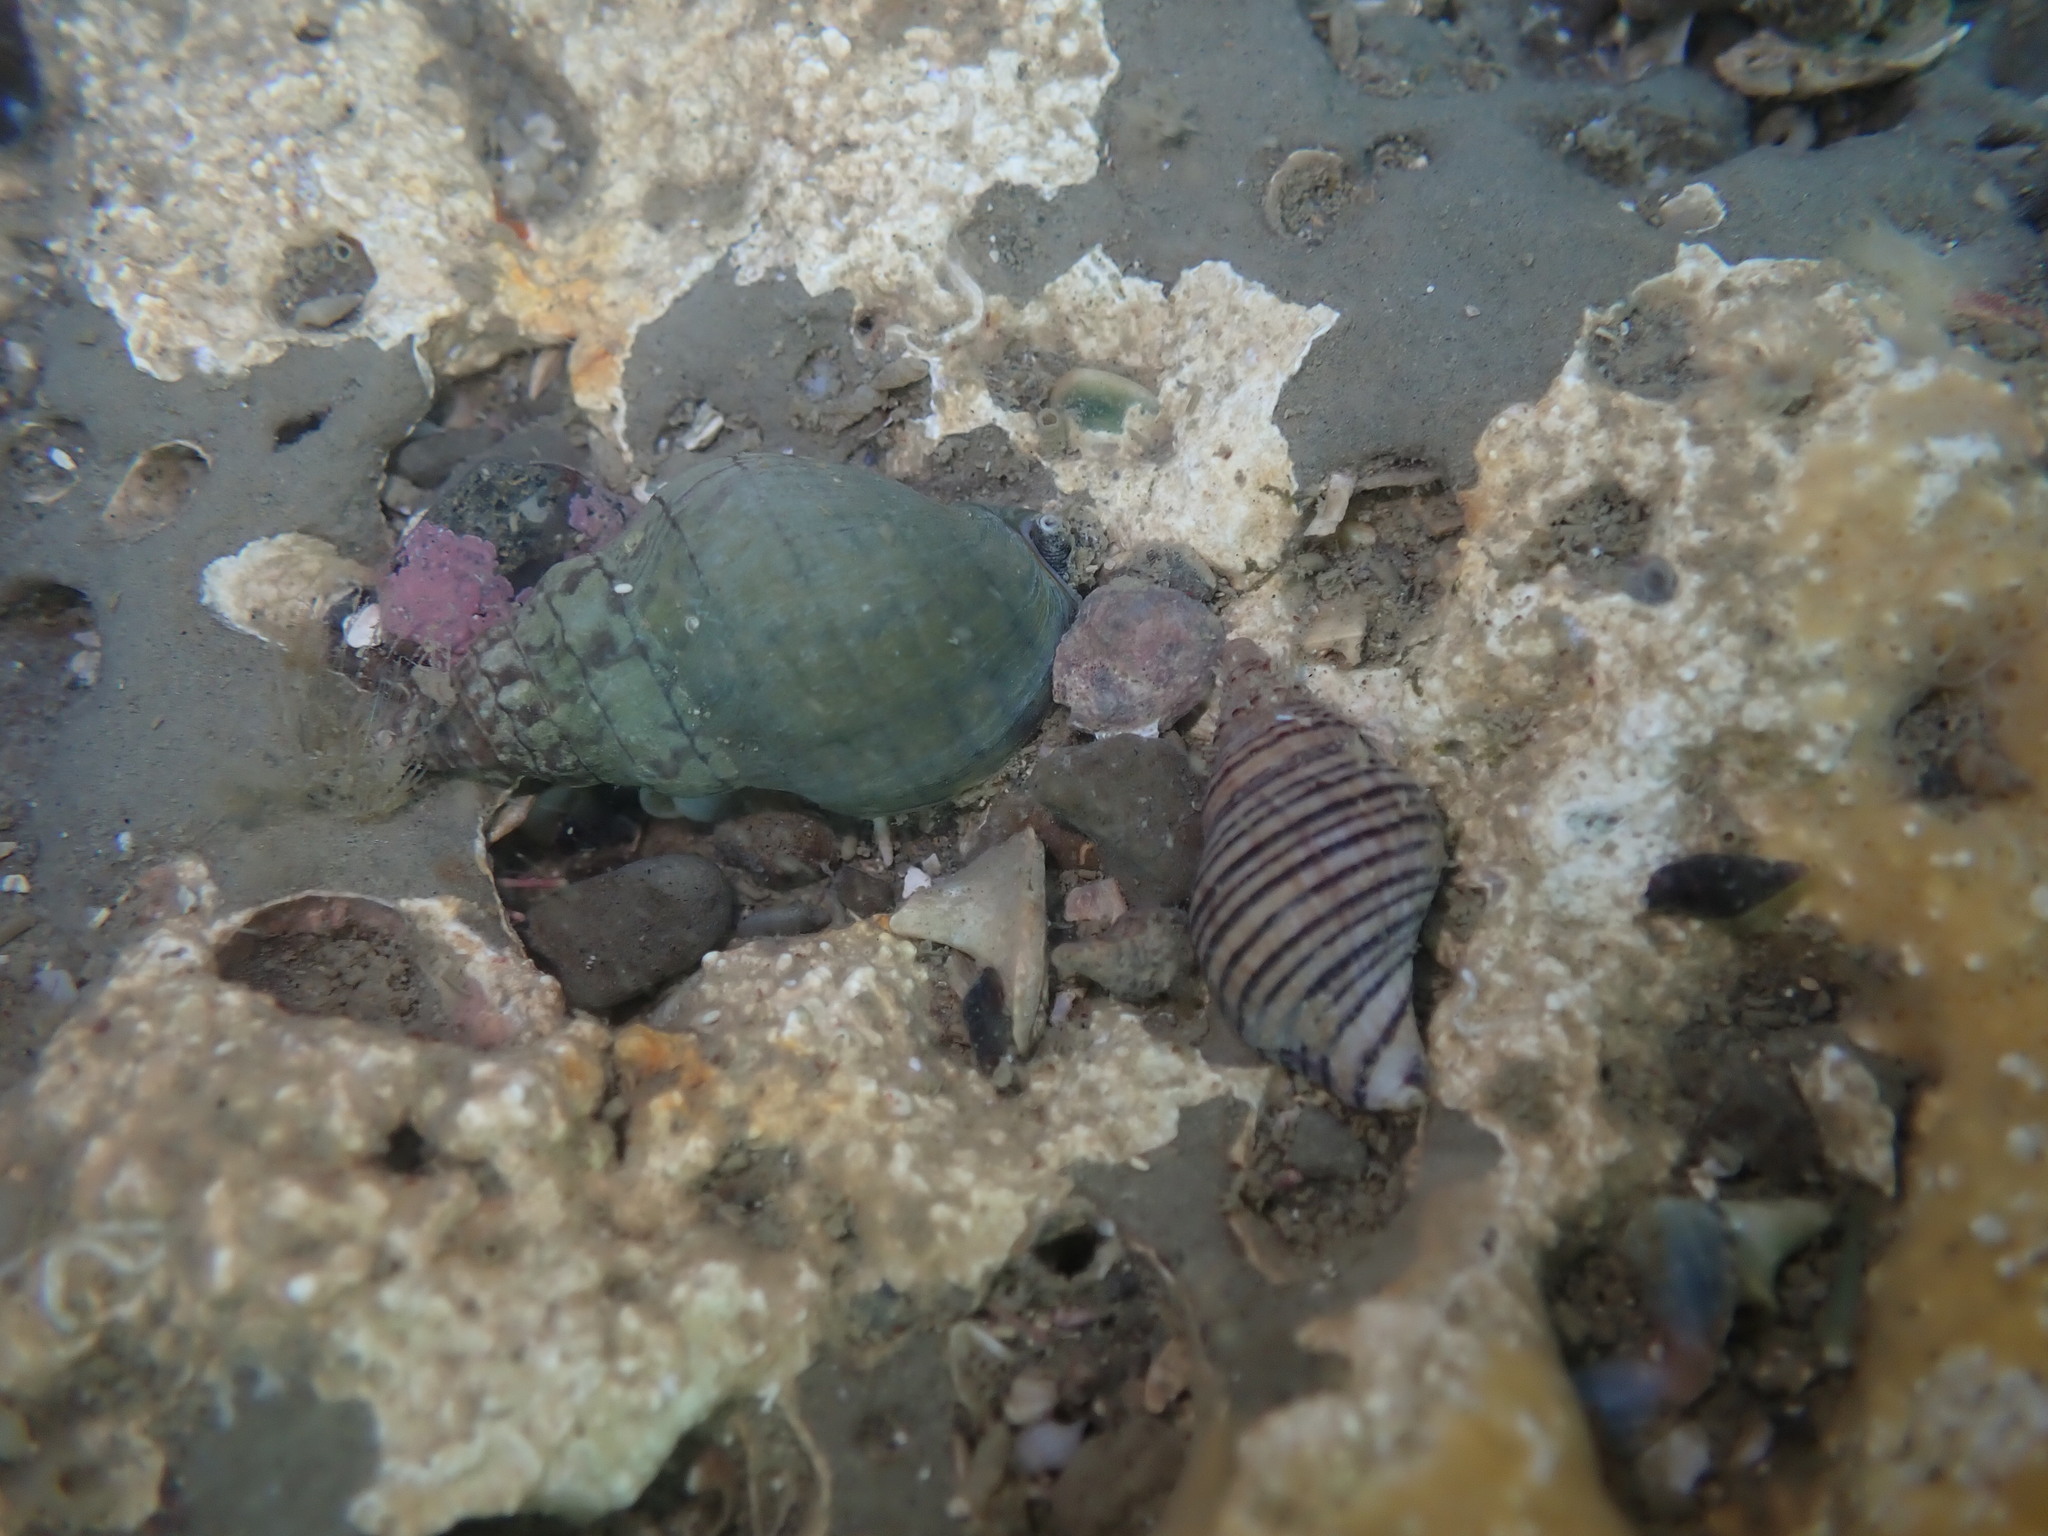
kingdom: Animalia
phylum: Mollusca
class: Gastropoda
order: Neogastropoda
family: Cominellidae
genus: Cominella
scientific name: Cominella virgata
